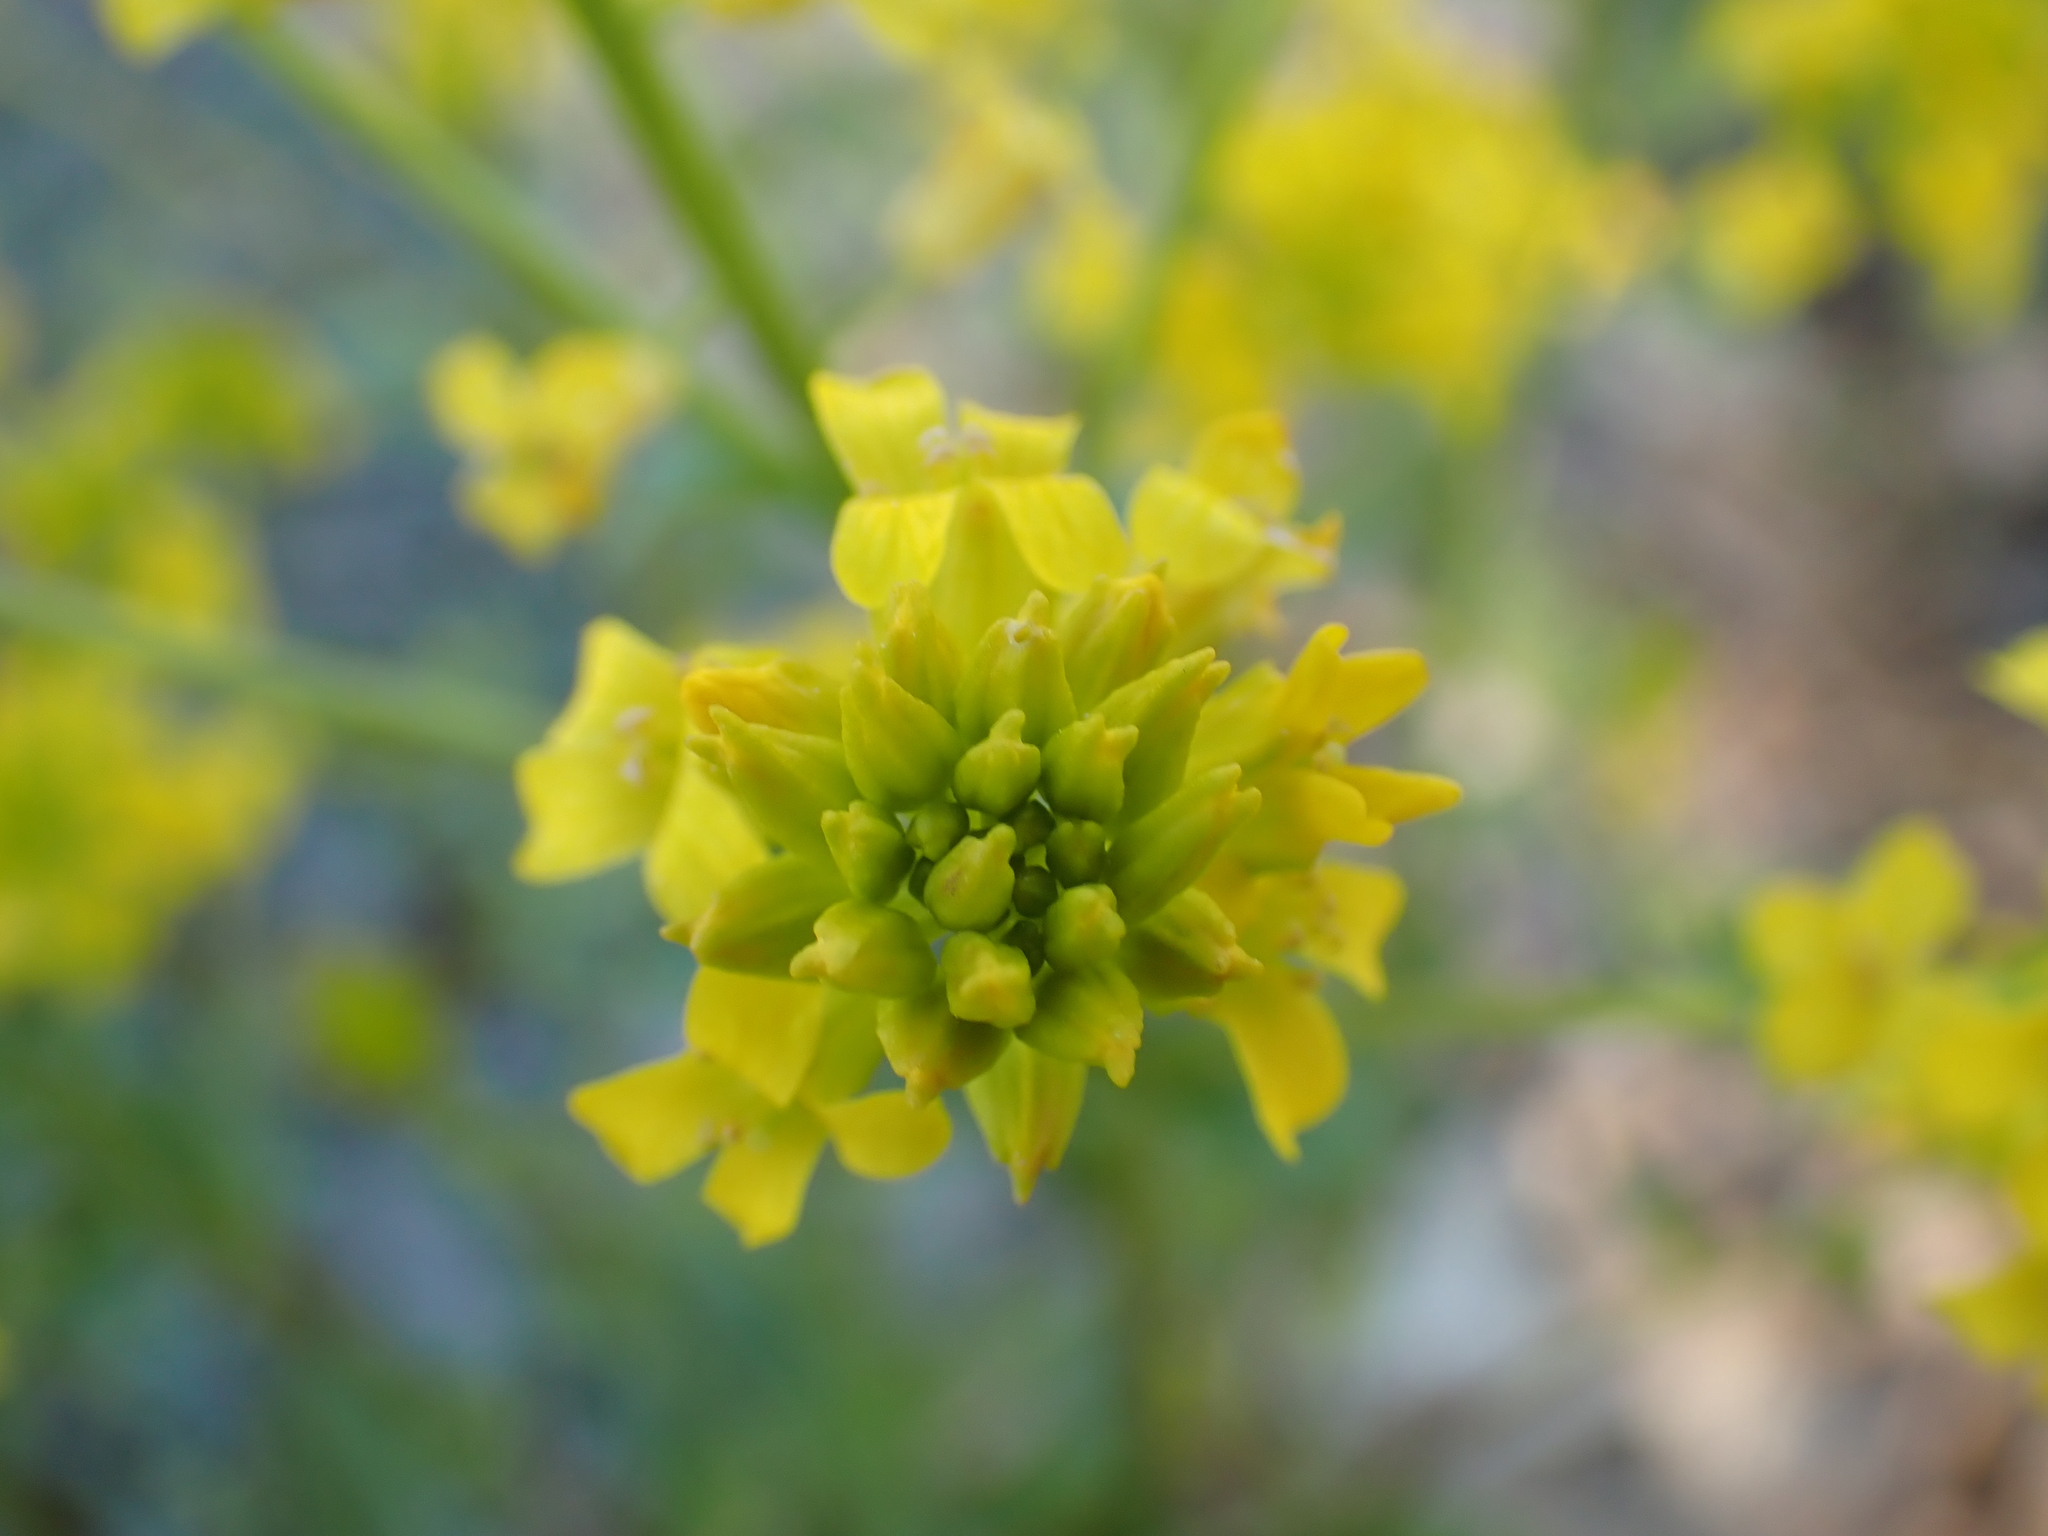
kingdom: Plantae
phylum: Tracheophyta
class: Magnoliopsida
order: Brassicales
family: Brassicaceae
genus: Barbarea
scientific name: Barbarea vulgaris
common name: Cressy-greens
